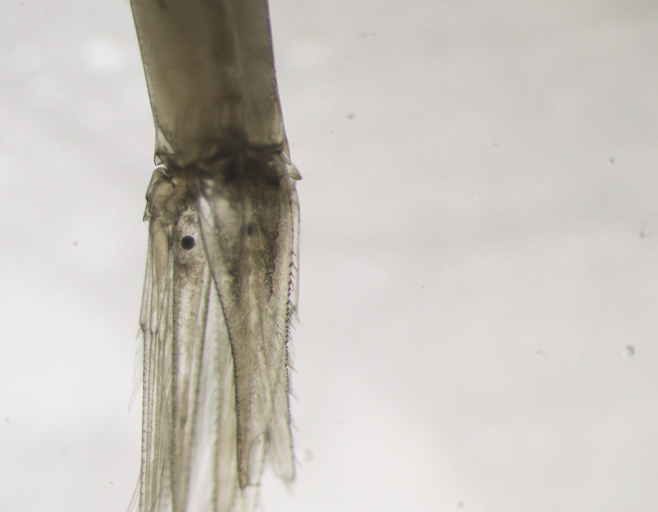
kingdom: Animalia
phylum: Arthropoda
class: Malacostraca
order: Mysida
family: Mysidae
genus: Boreomysis
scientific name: Boreomysis arctica
